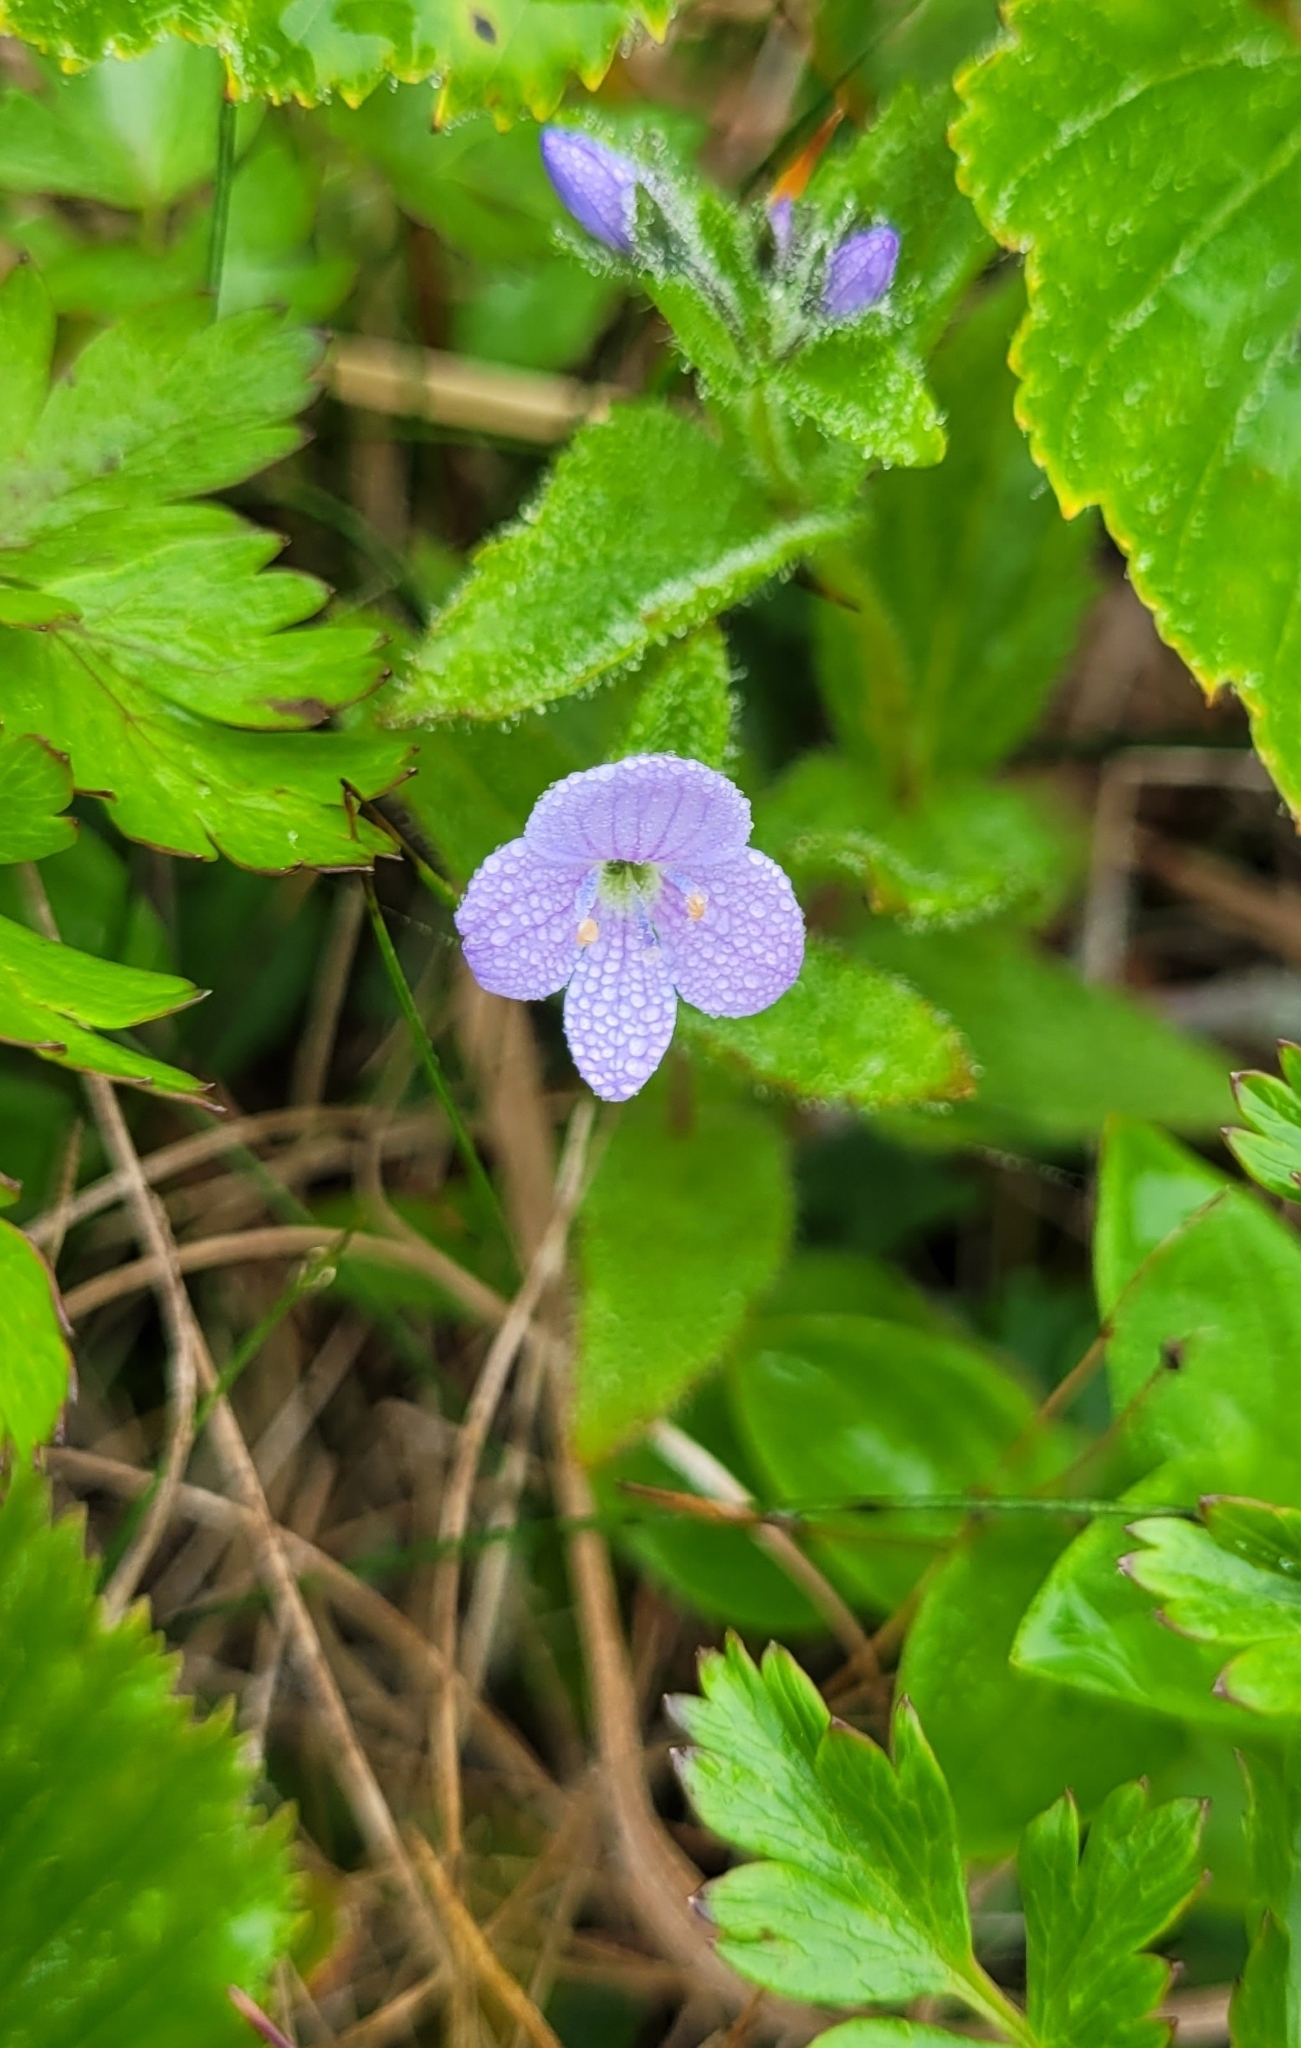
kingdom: Plantae
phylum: Tracheophyta
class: Magnoliopsida
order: Lamiales
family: Plantaginaceae
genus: Veronica
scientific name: Veronica stelleri
